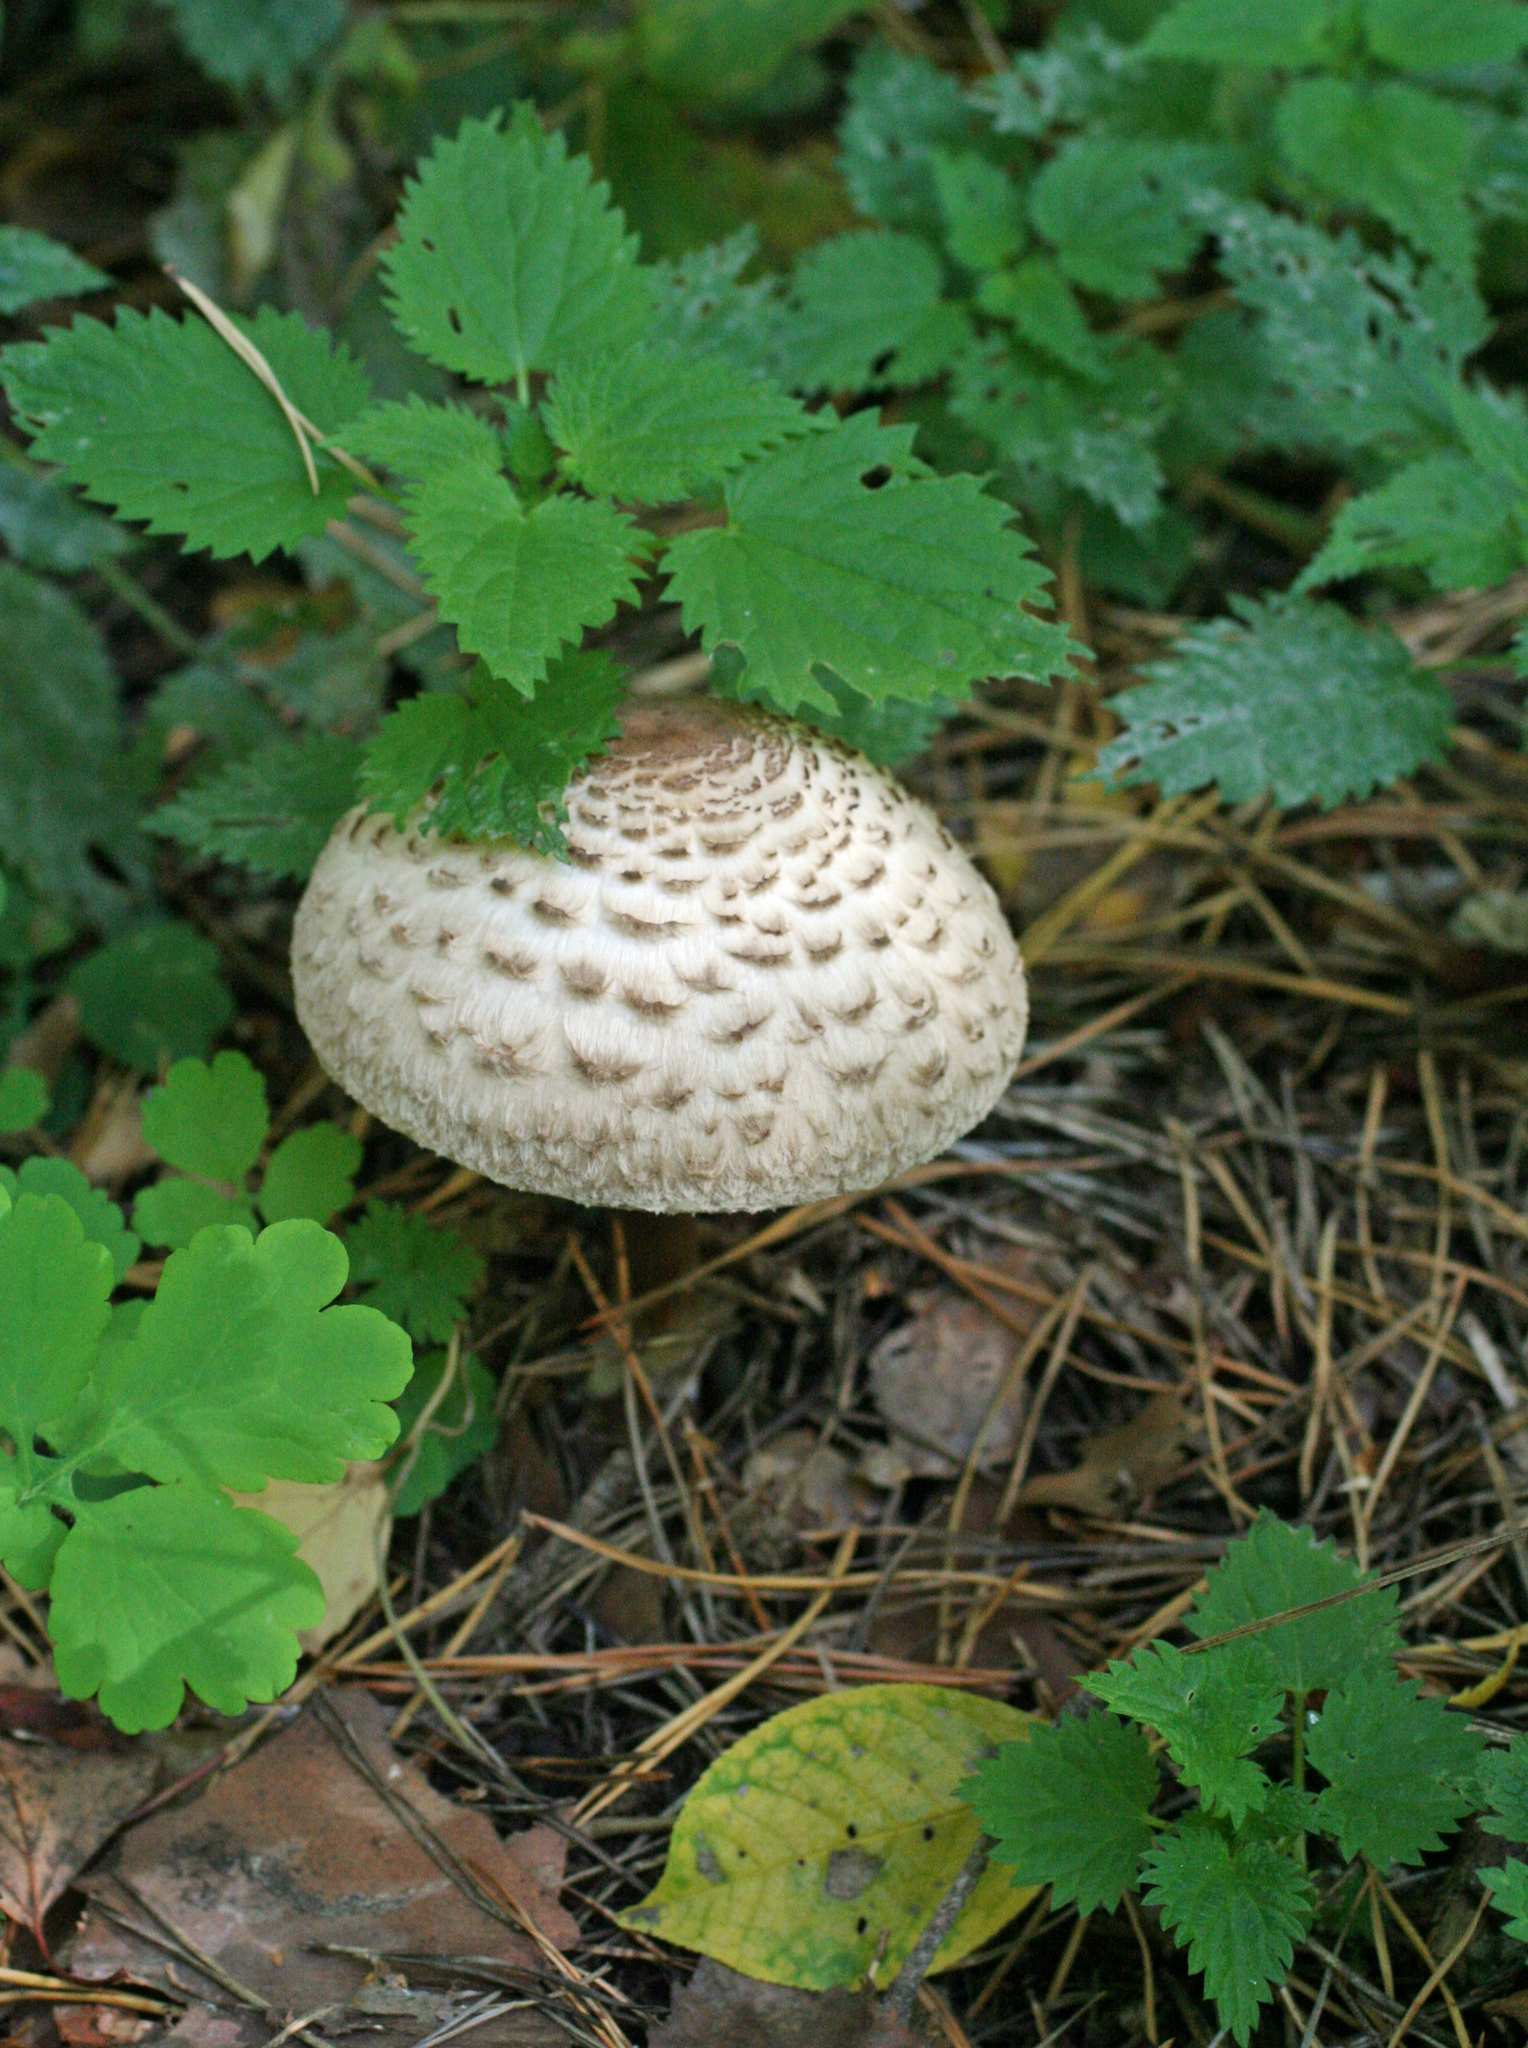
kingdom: Fungi
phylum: Basidiomycota
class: Agaricomycetes
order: Agaricales
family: Agaricaceae
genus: Chlorophyllum
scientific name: Chlorophyllum rhacodes
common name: Shaggy parasol
